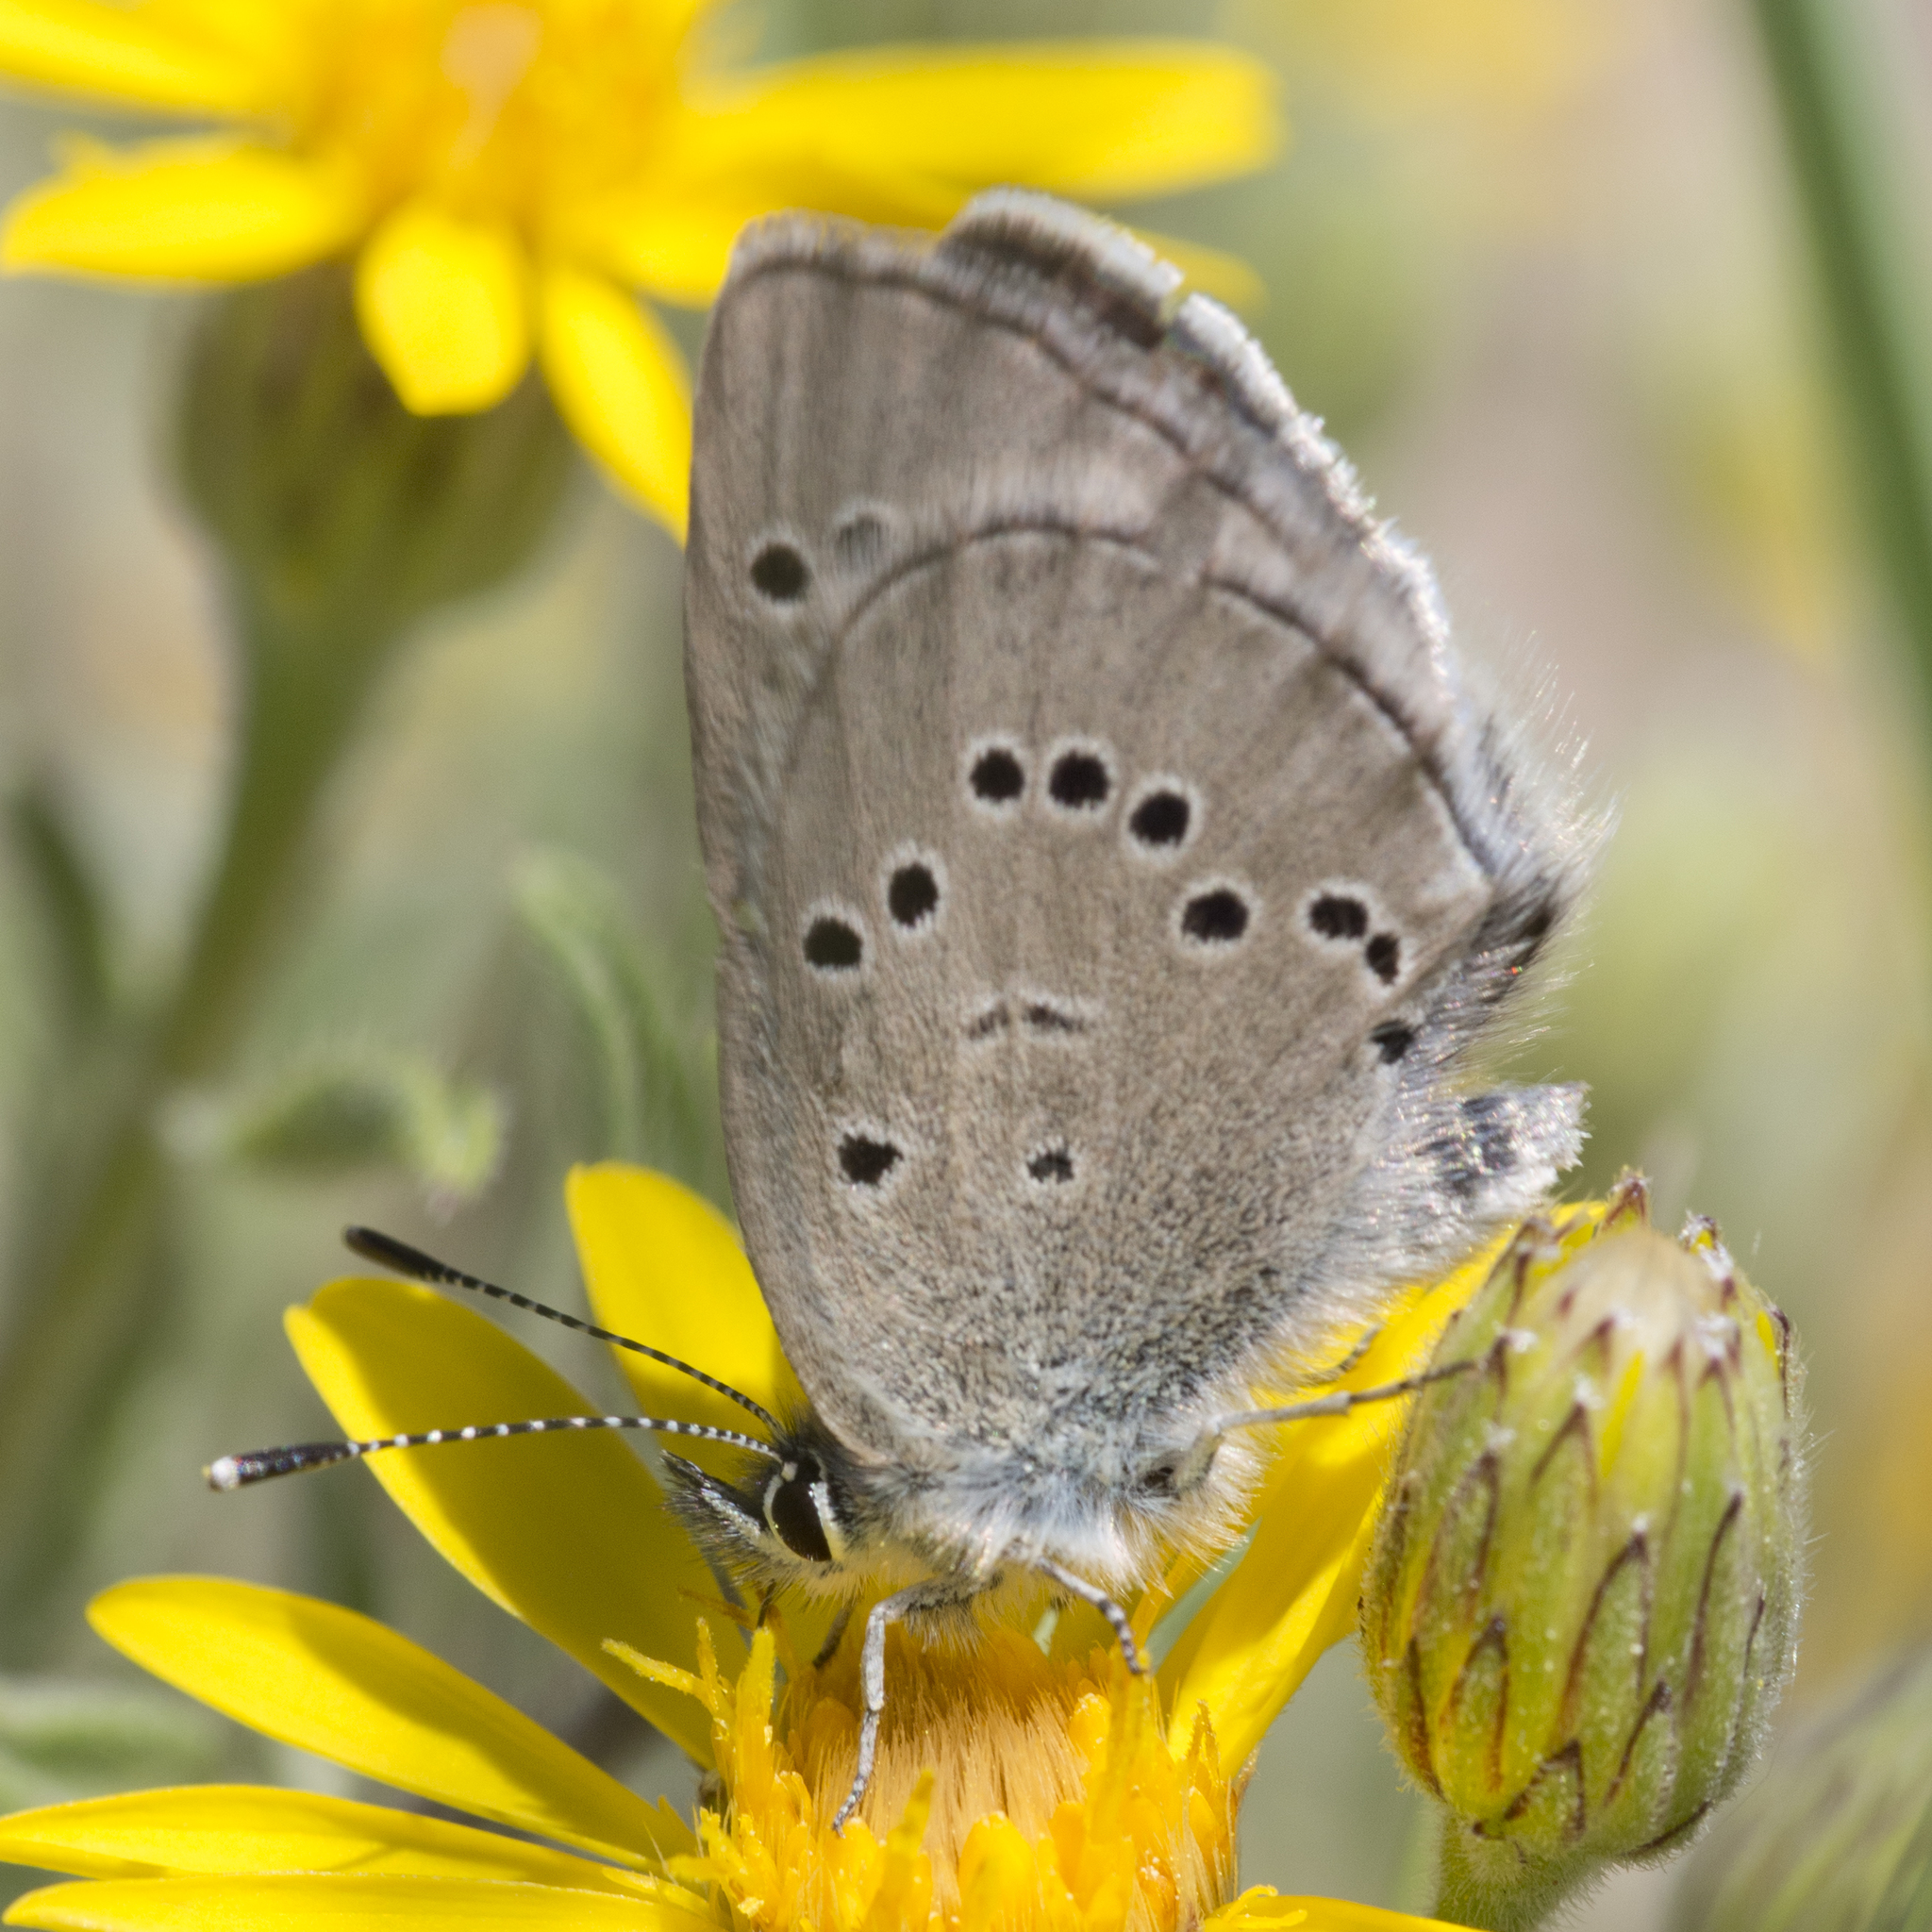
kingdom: Animalia
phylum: Arthropoda
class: Insecta
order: Lepidoptera
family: Lycaenidae
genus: Glaucopsyche
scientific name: Glaucopsyche lygdamus
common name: Silvery blue
